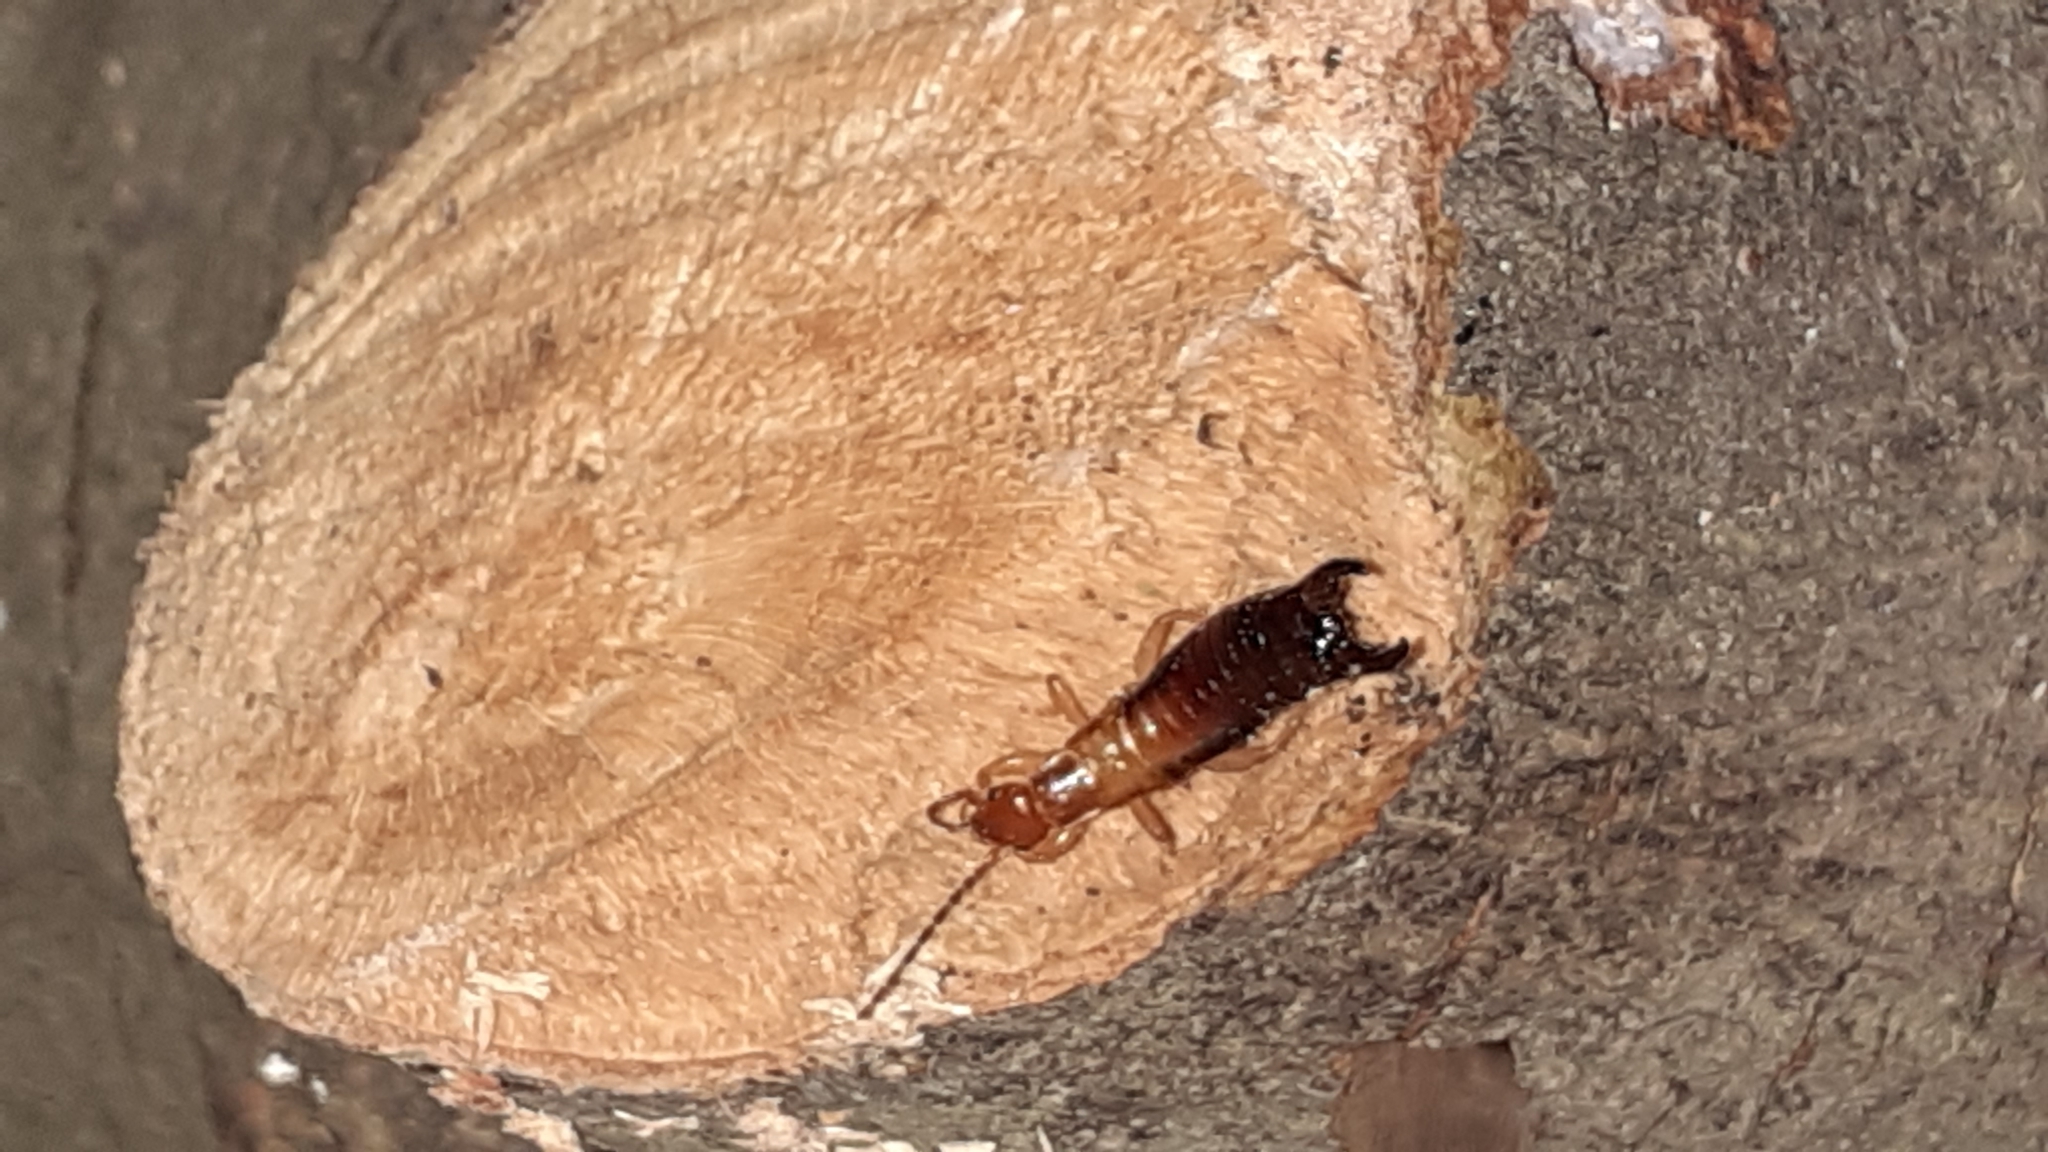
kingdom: Animalia
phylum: Arthropoda
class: Insecta
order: Dermaptera
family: Forficulidae
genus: Proforficula
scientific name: Proforficula peringueyi
